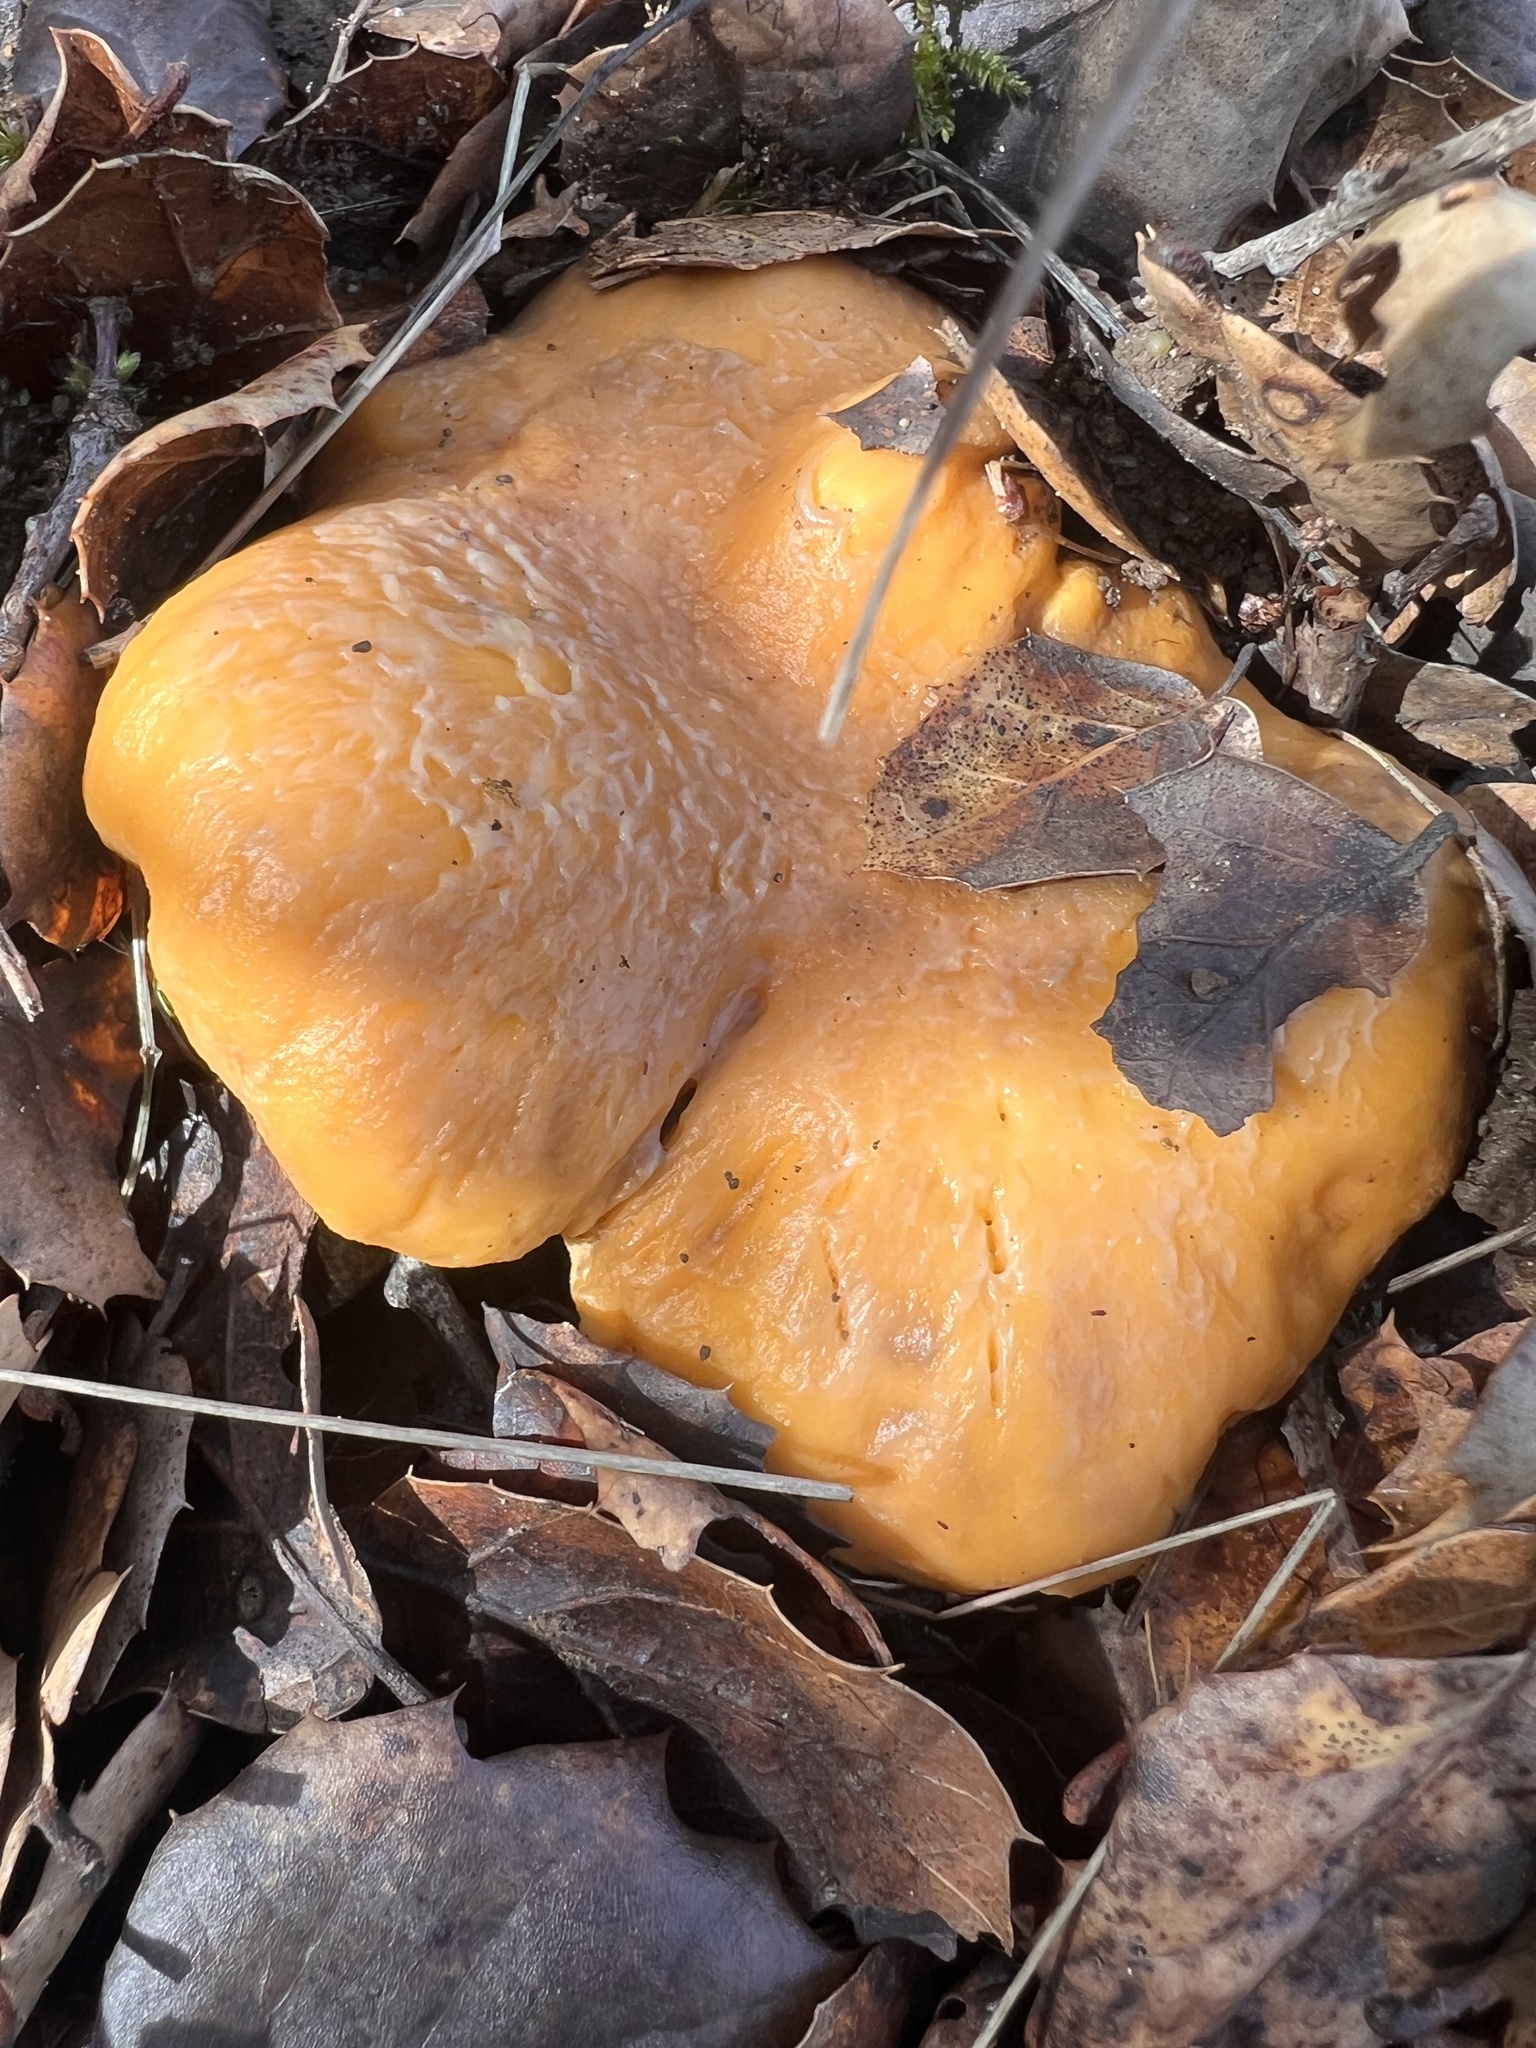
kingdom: Fungi
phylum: Basidiomycota
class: Agaricomycetes
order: Cantharellales
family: Hydnaceae
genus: Cantharellus
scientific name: Cantharellus californicus
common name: California golden chanterelle
